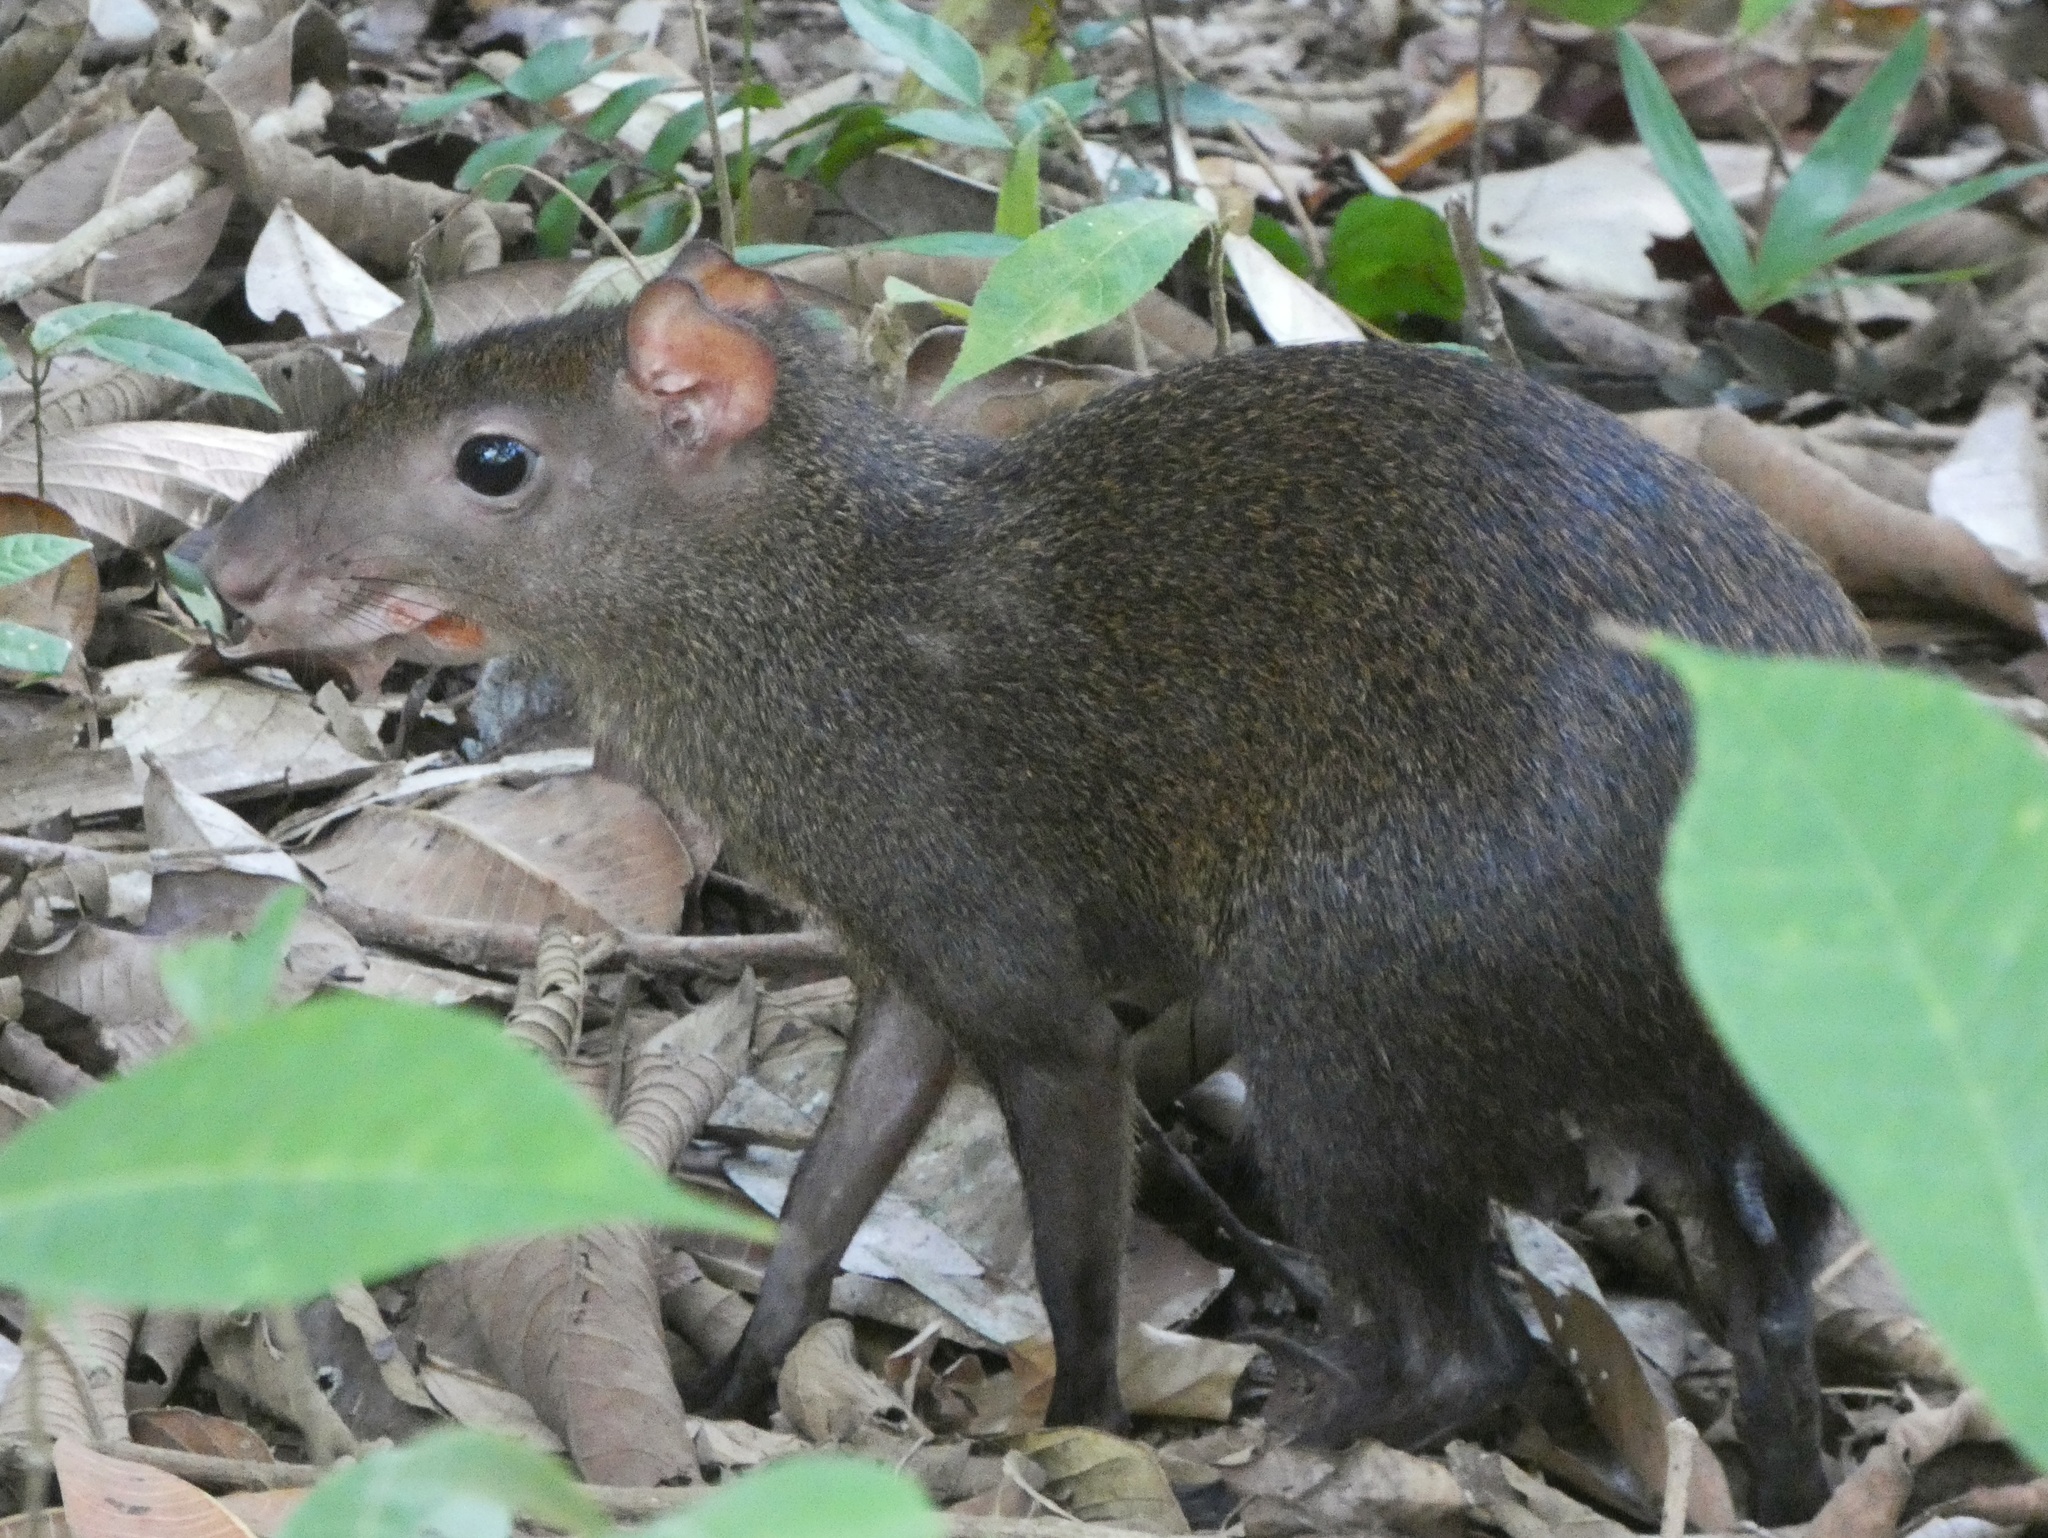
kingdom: Animalia
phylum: Chordata
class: Mammalia
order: Rodentia
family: Dasyproctidae
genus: Dasyprocta
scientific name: Dasyprocta punctata
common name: Central american agouti
